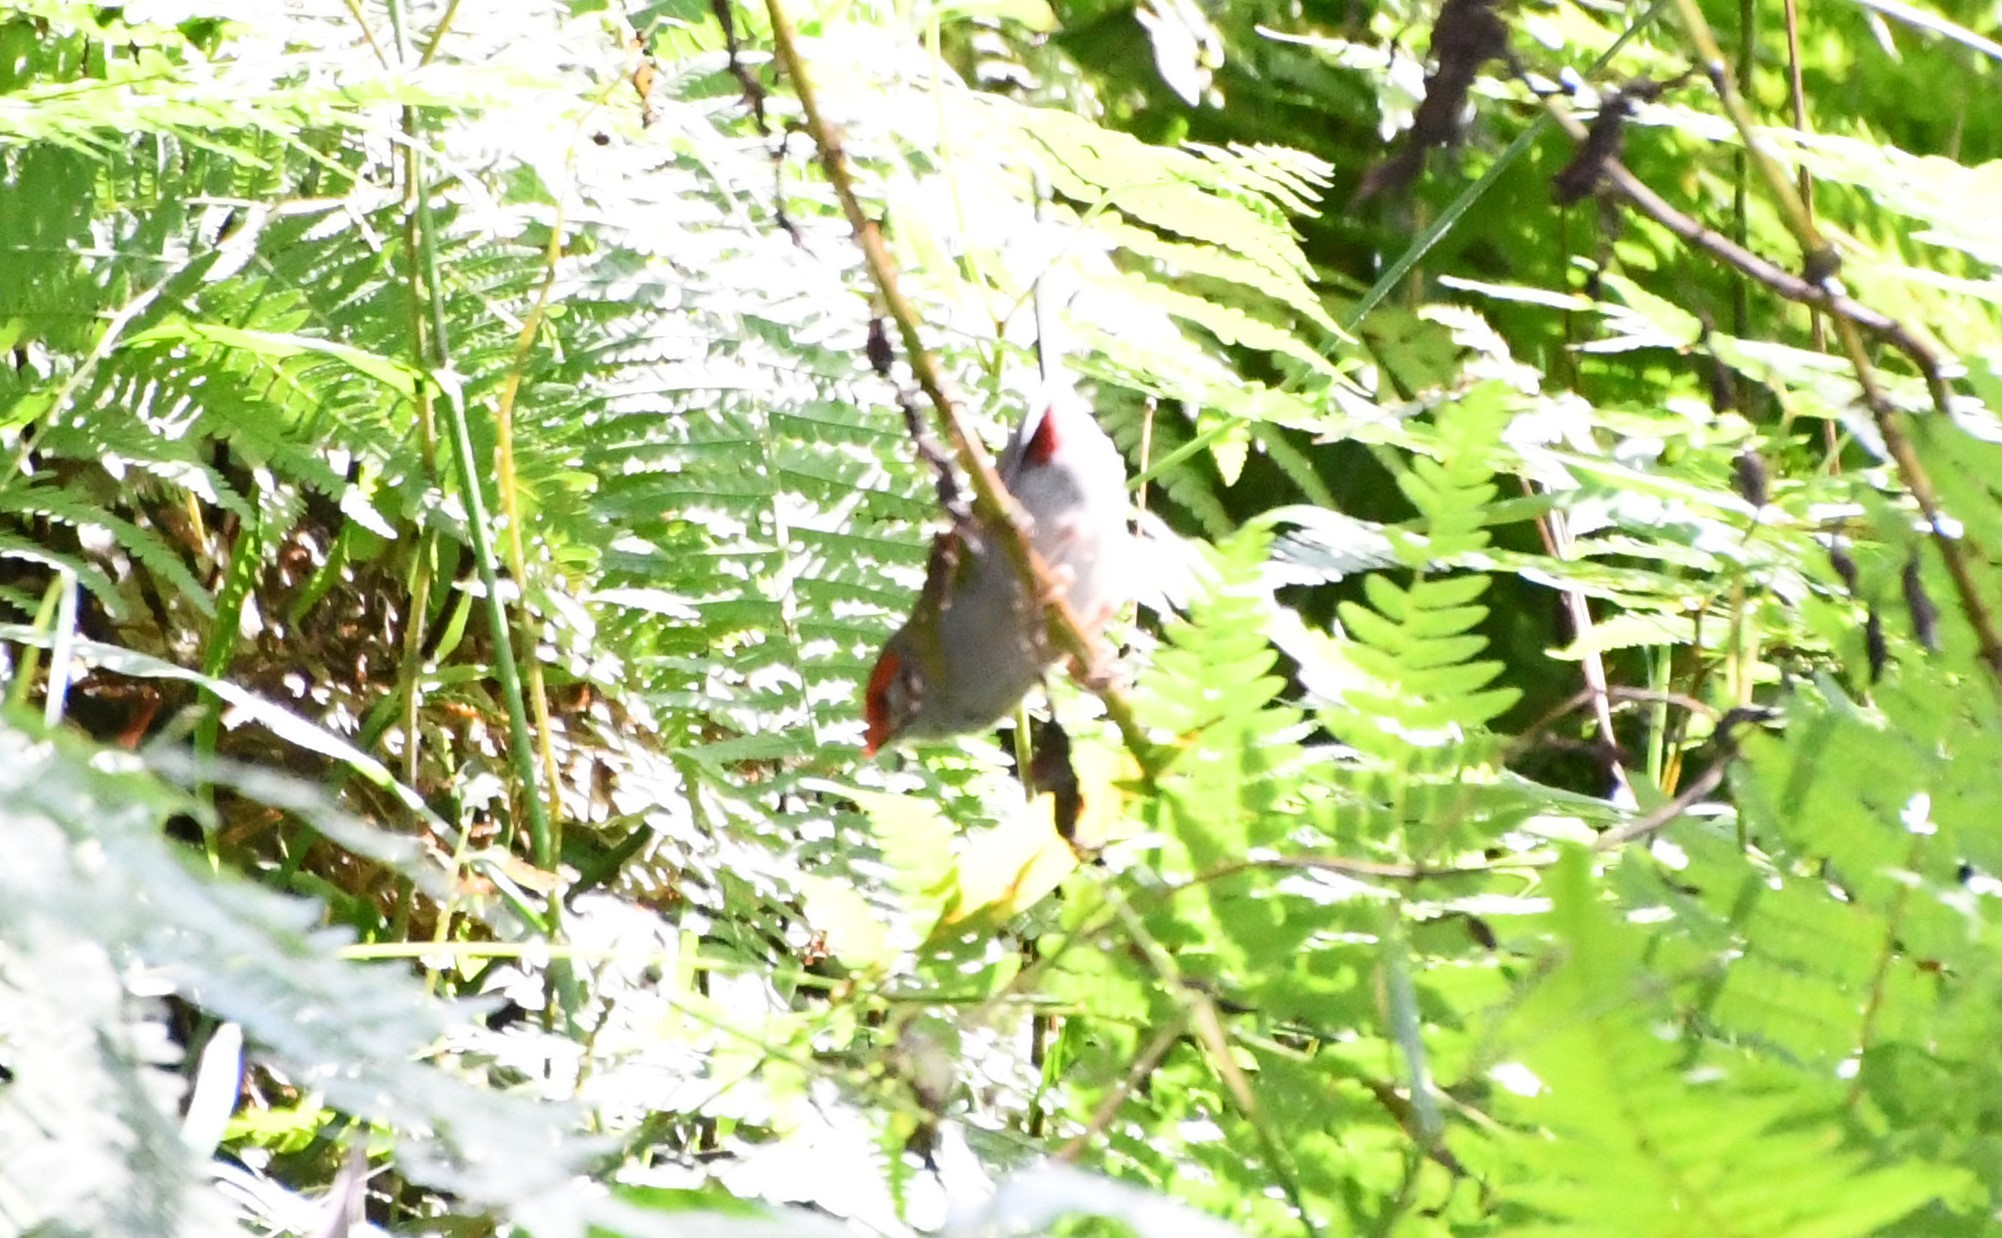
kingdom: Animalia
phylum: Chordata
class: Aves
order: Passeriformes
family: Estrildidae
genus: Neochmia
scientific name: Neochmia temporalis
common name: Red-browed finch
